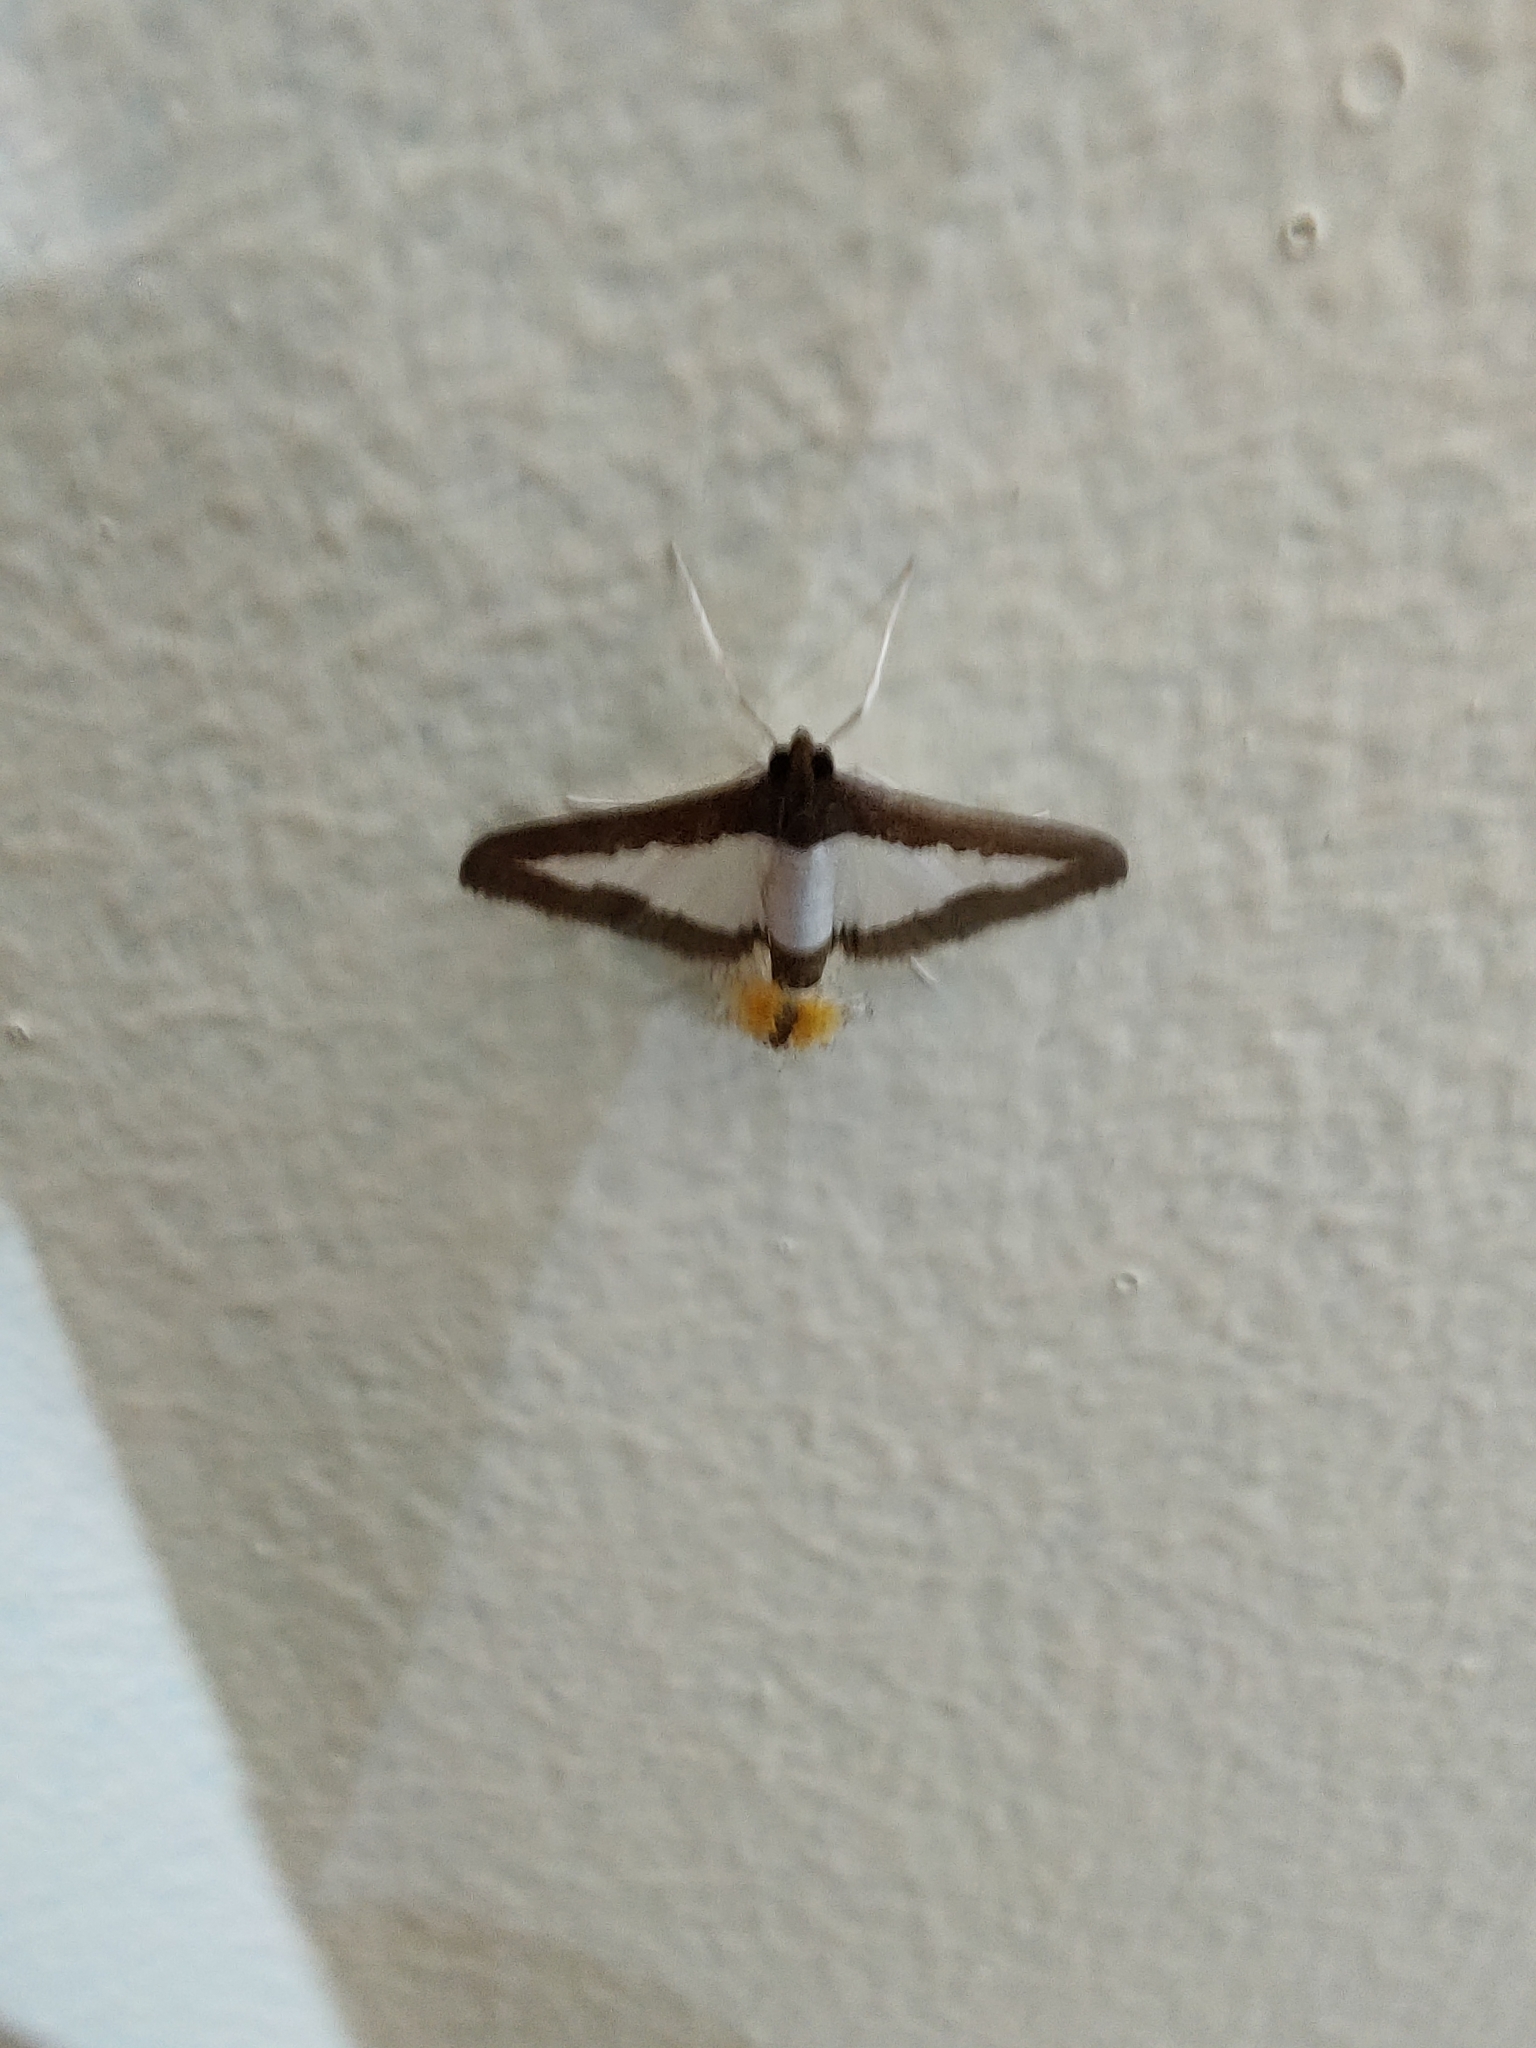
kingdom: Animalia
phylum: Arthropoda
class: Insecta
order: Lepidoptera
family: Crambidae
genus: Diaphania
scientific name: Diaphania indica
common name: Cucumber moth
